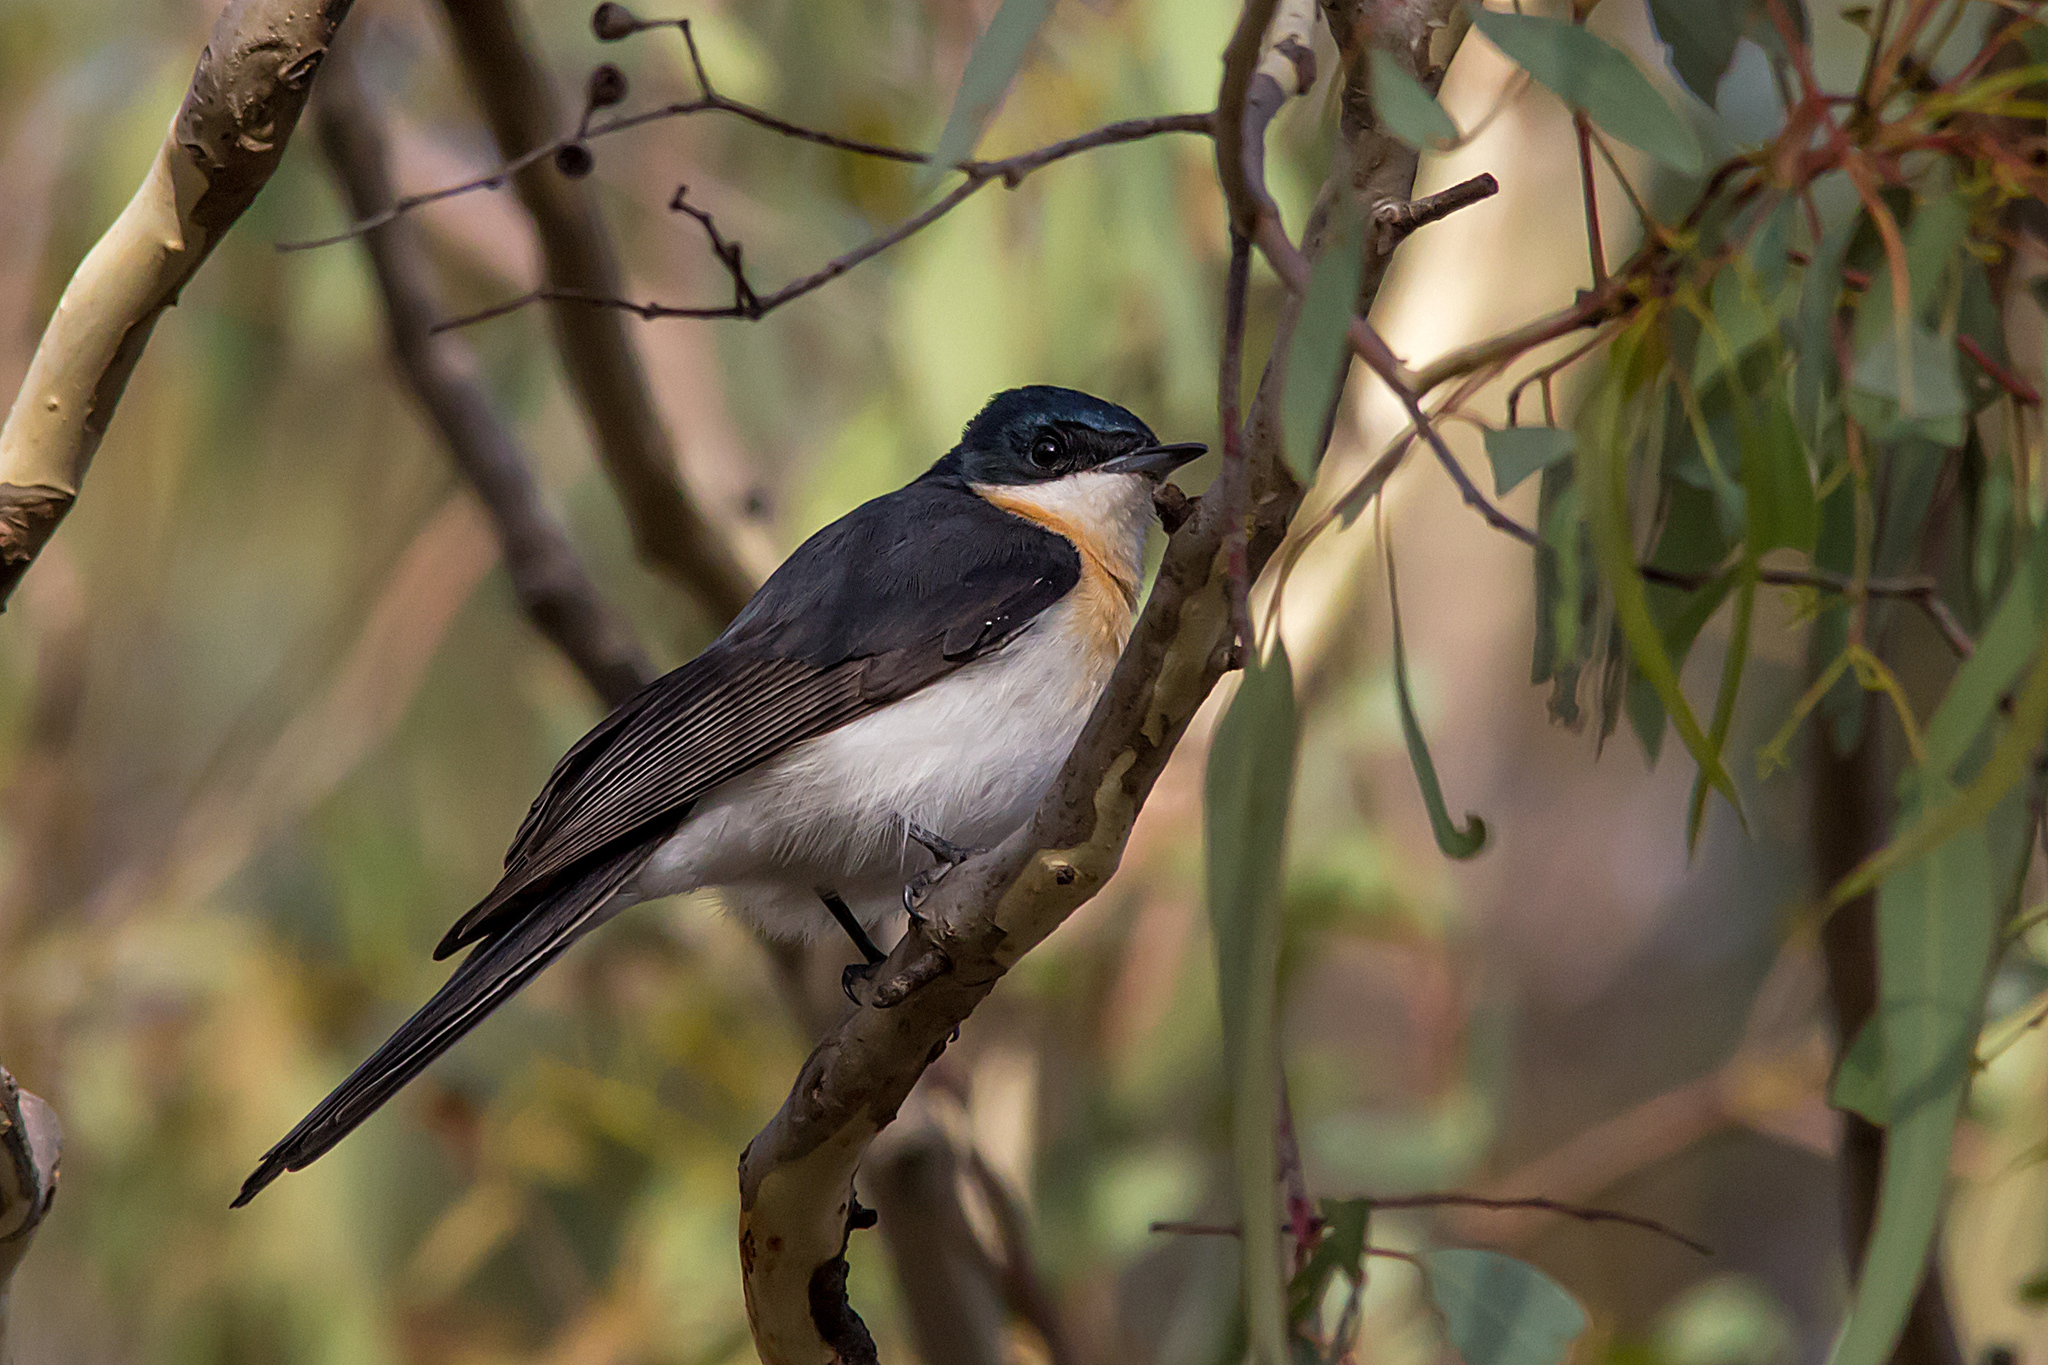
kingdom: Animalia
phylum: Chordata
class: Aves
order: Passeriformes
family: Monarchidae
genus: Myiagra
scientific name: Myiagra inquieta
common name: Restless flycatcher
